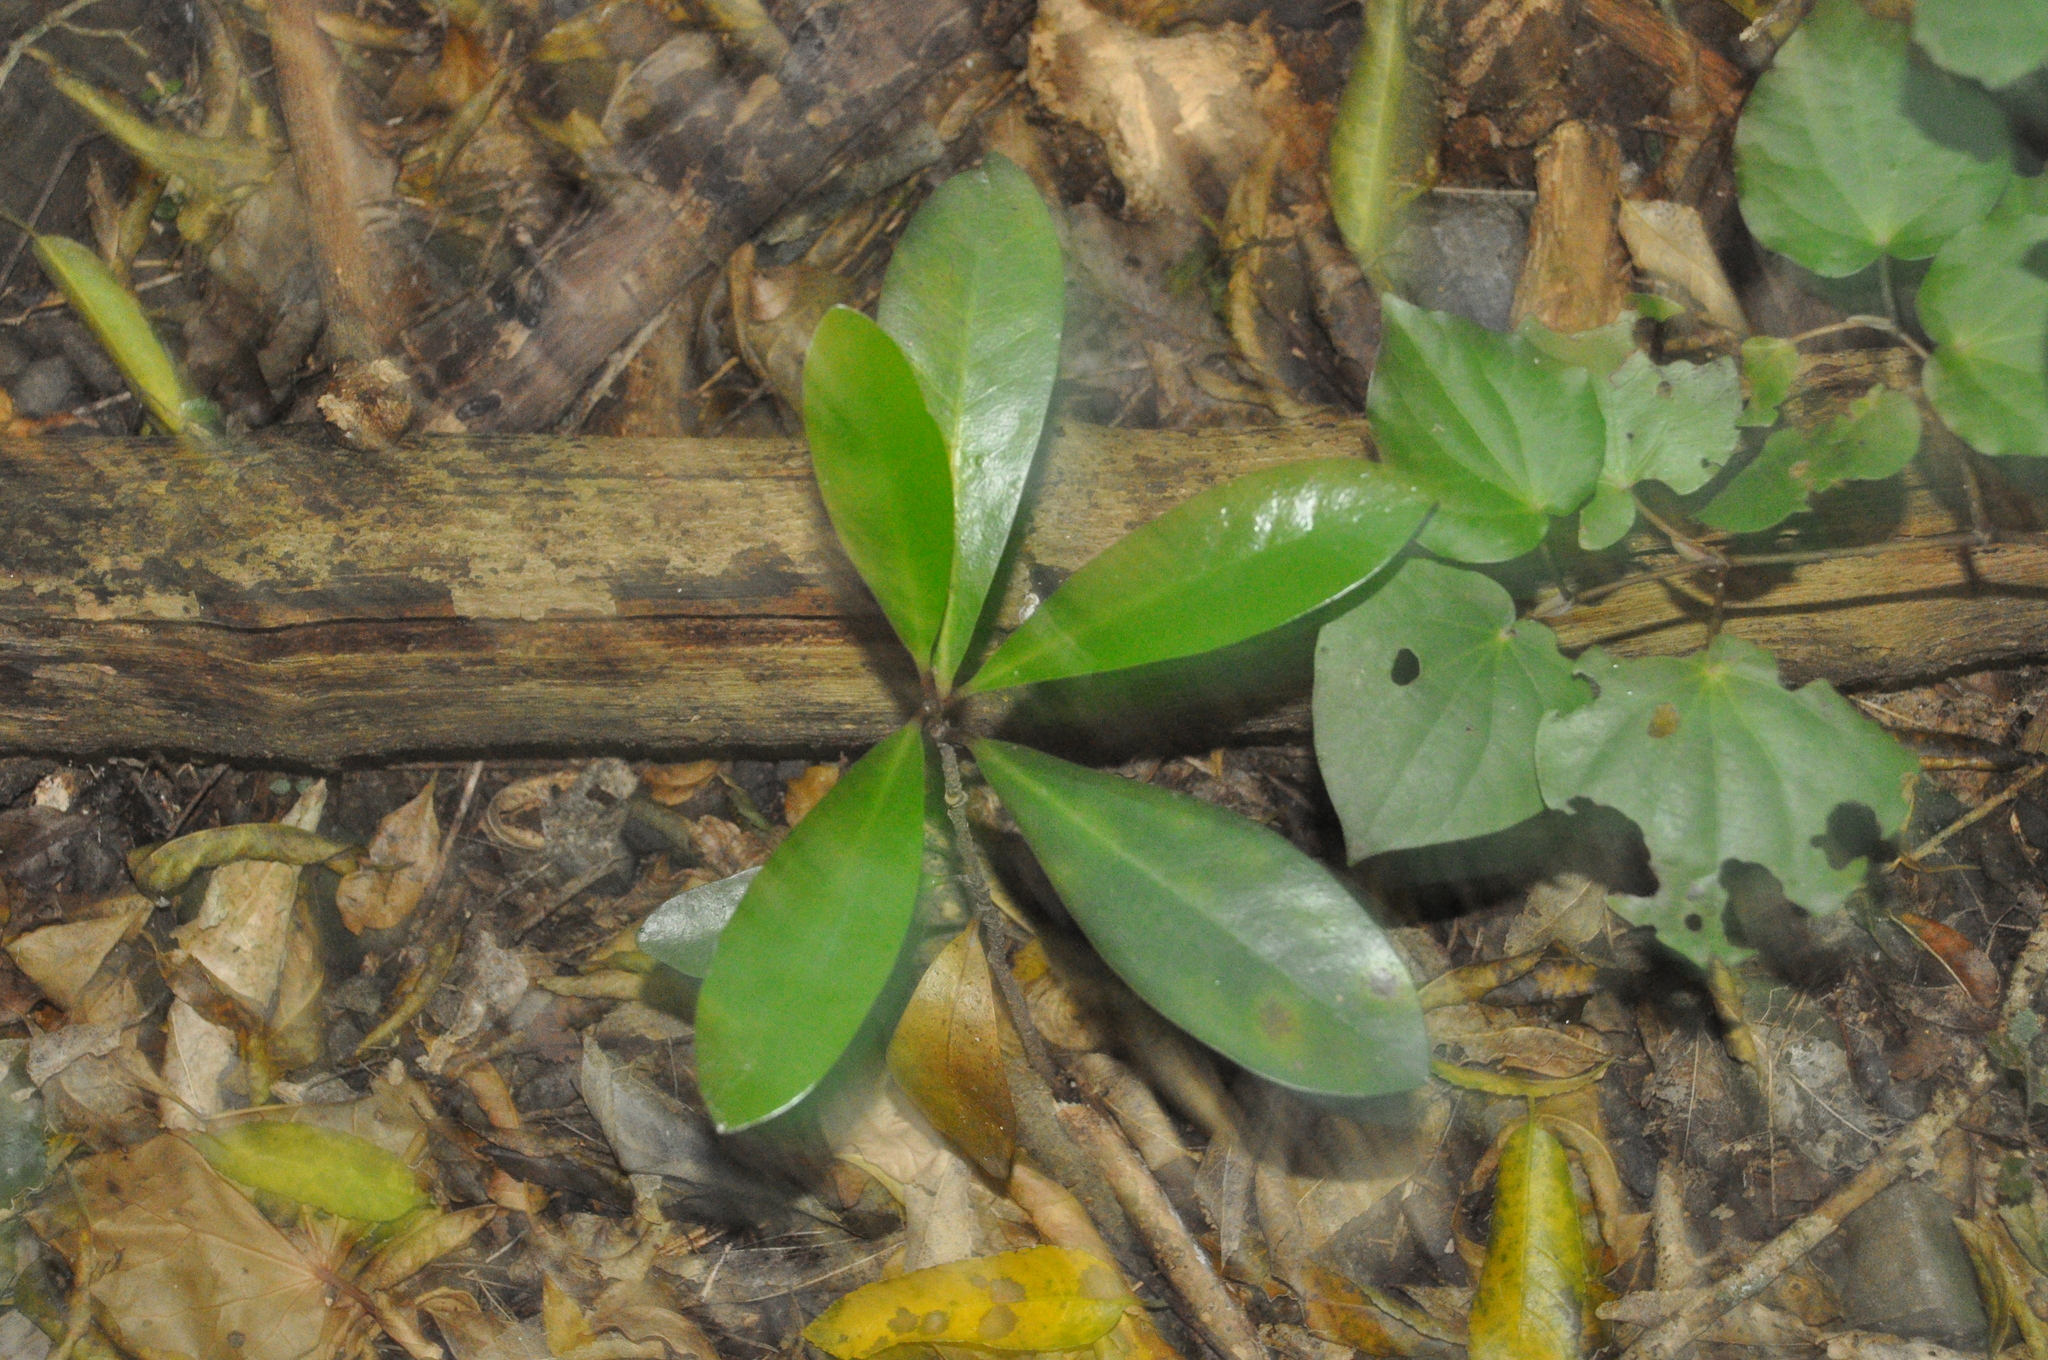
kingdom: Plantae
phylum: Tracheophyta
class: Magnoliopsida
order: Cucurbitales
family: Corynocarpaceae
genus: Corynocarpus
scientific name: Corynocarpus laevigatus
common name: New zealand laurel
